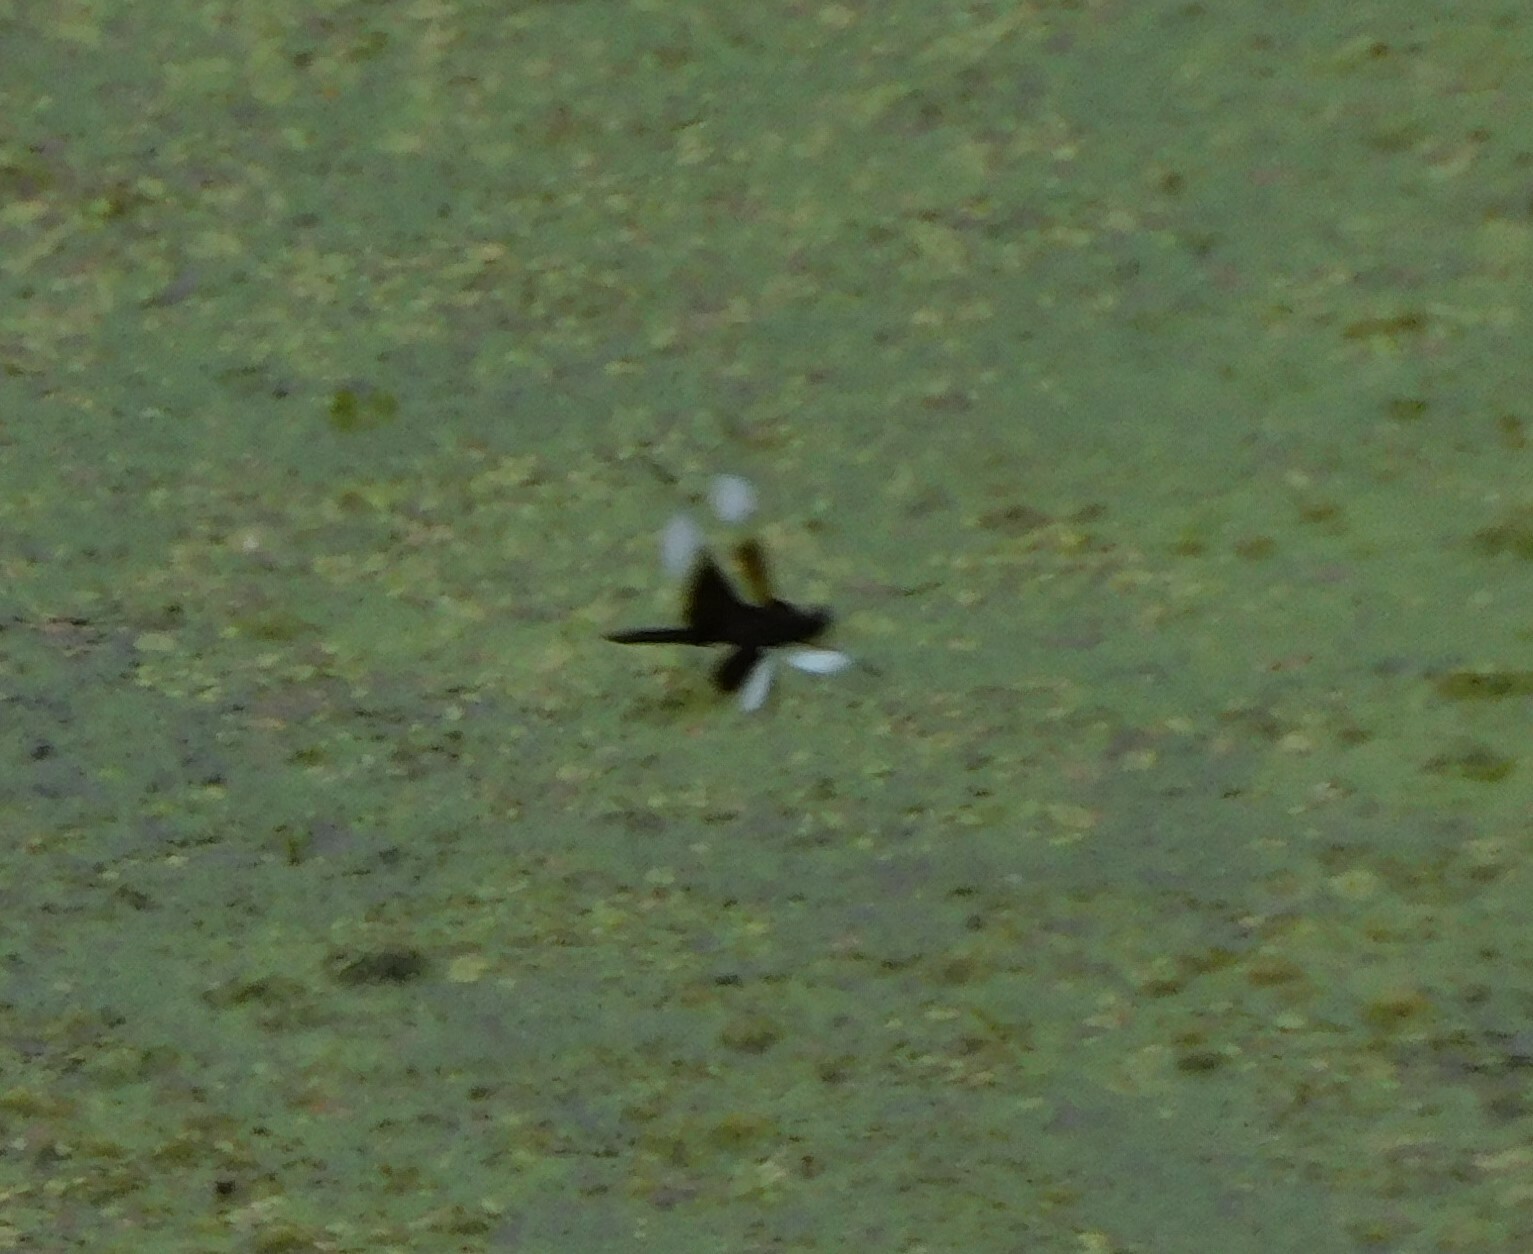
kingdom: Animalia
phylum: Arthropoda
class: Insecta
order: Odonata
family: Libellulidae
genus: Libellula
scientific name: Libellula luctuosa
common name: Widow skimmer
